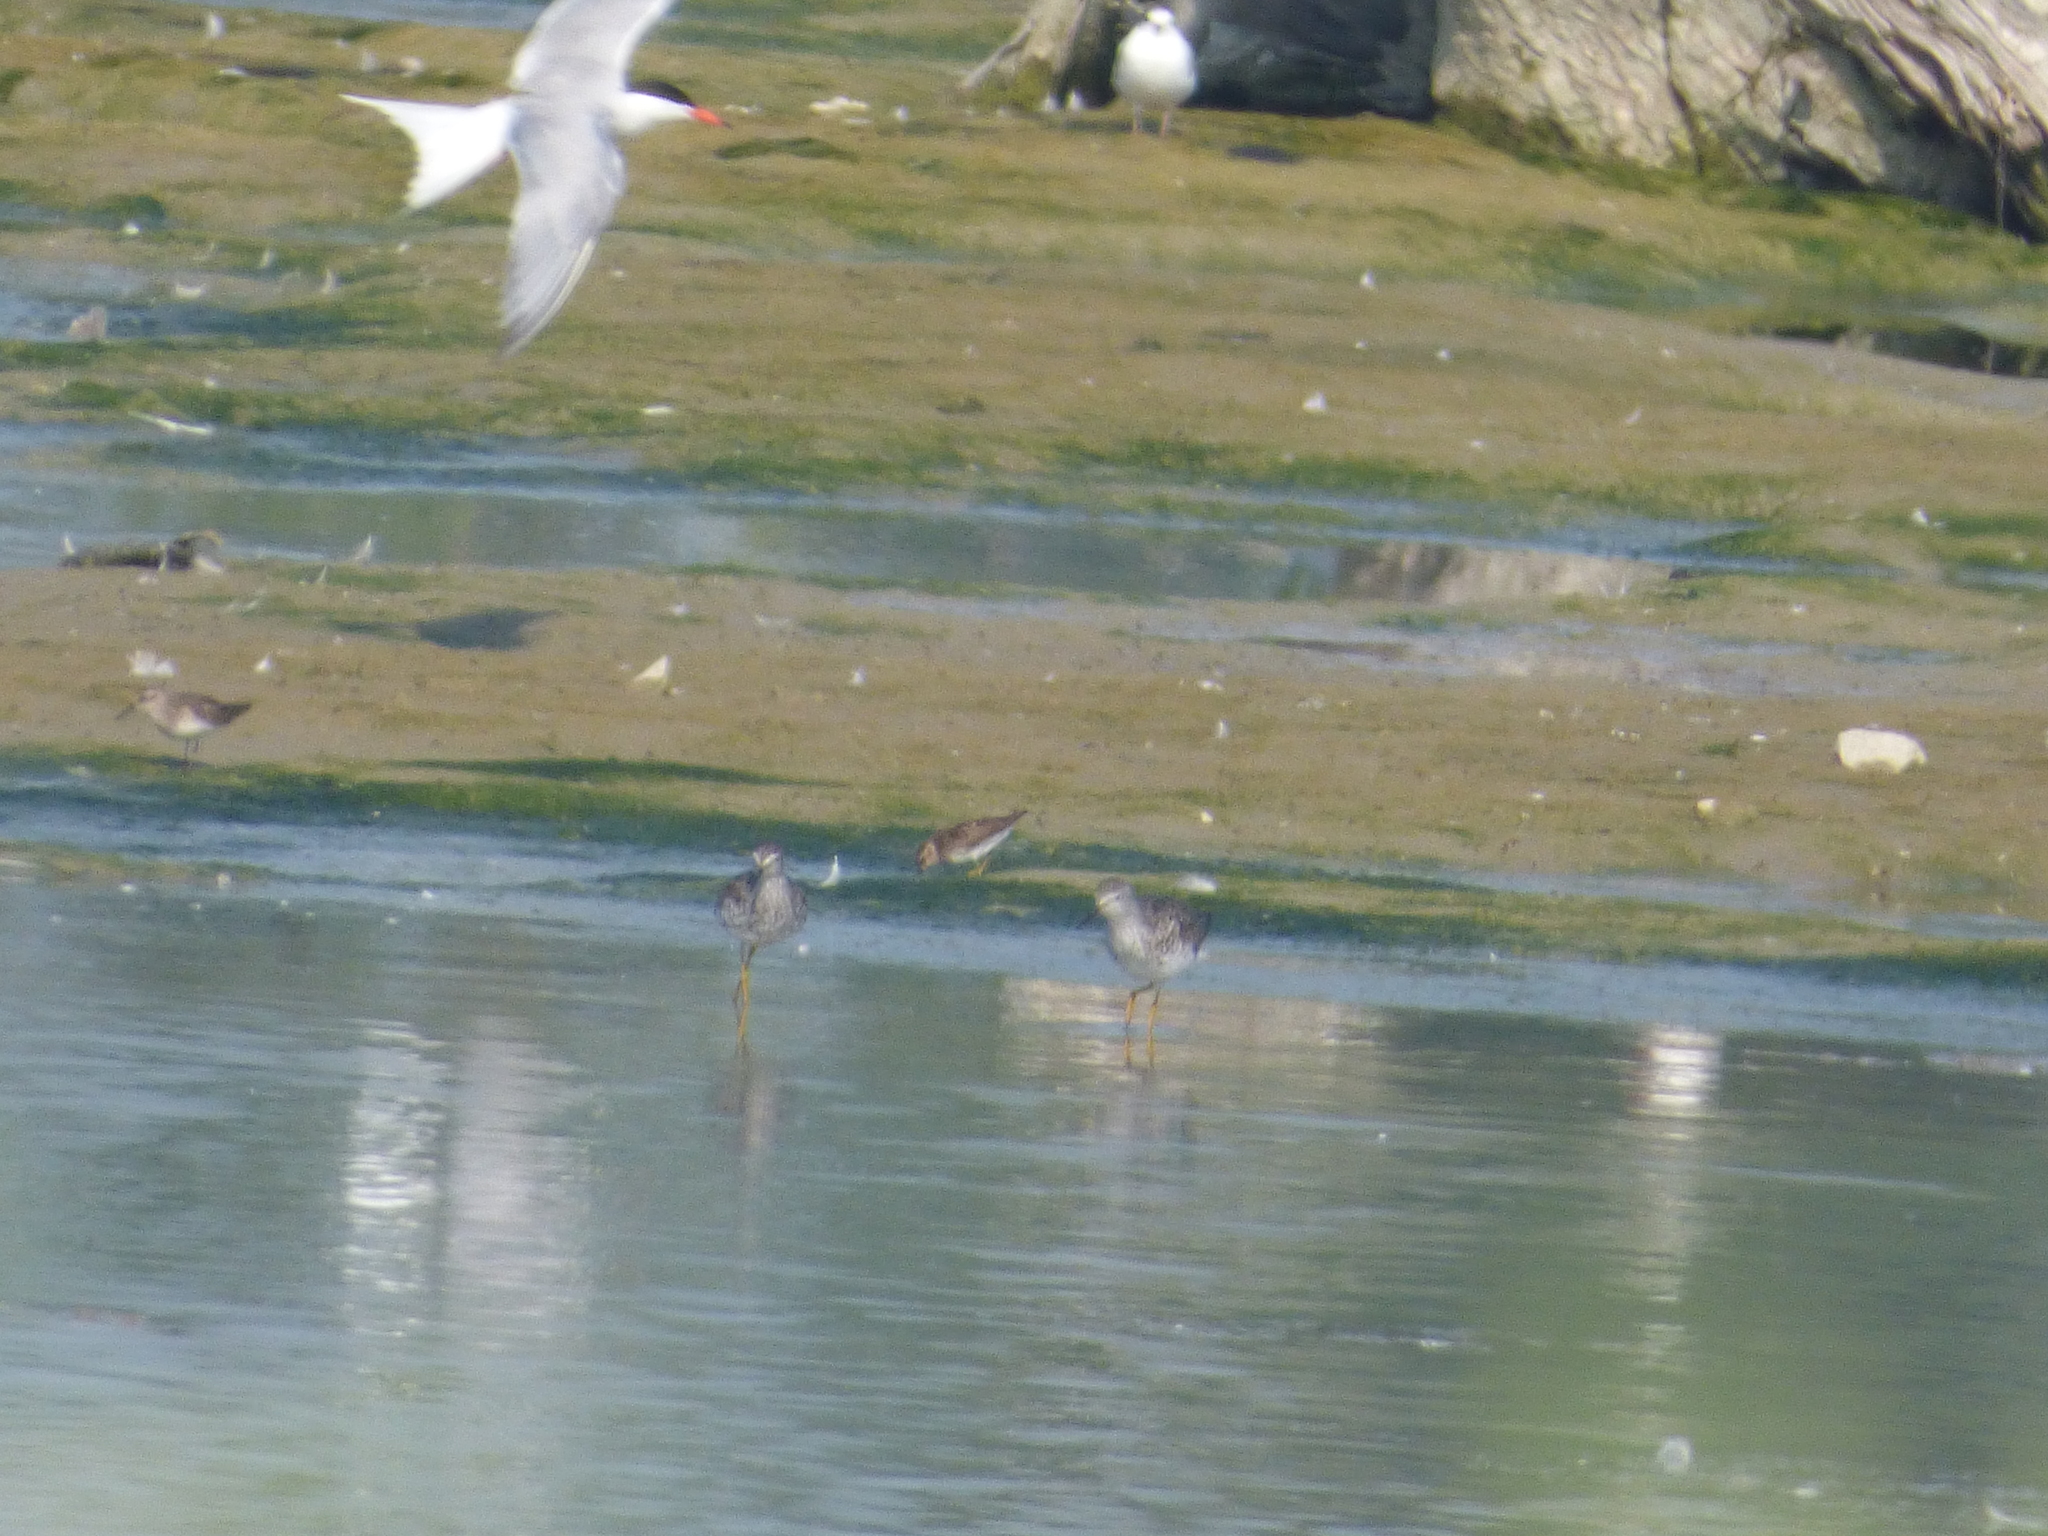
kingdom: Animalia
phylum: Chordata
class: Aves
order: Charadriiformes
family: Scolopacidae
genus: Calidris
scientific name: Calidris minutilla
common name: Least sandpiper
